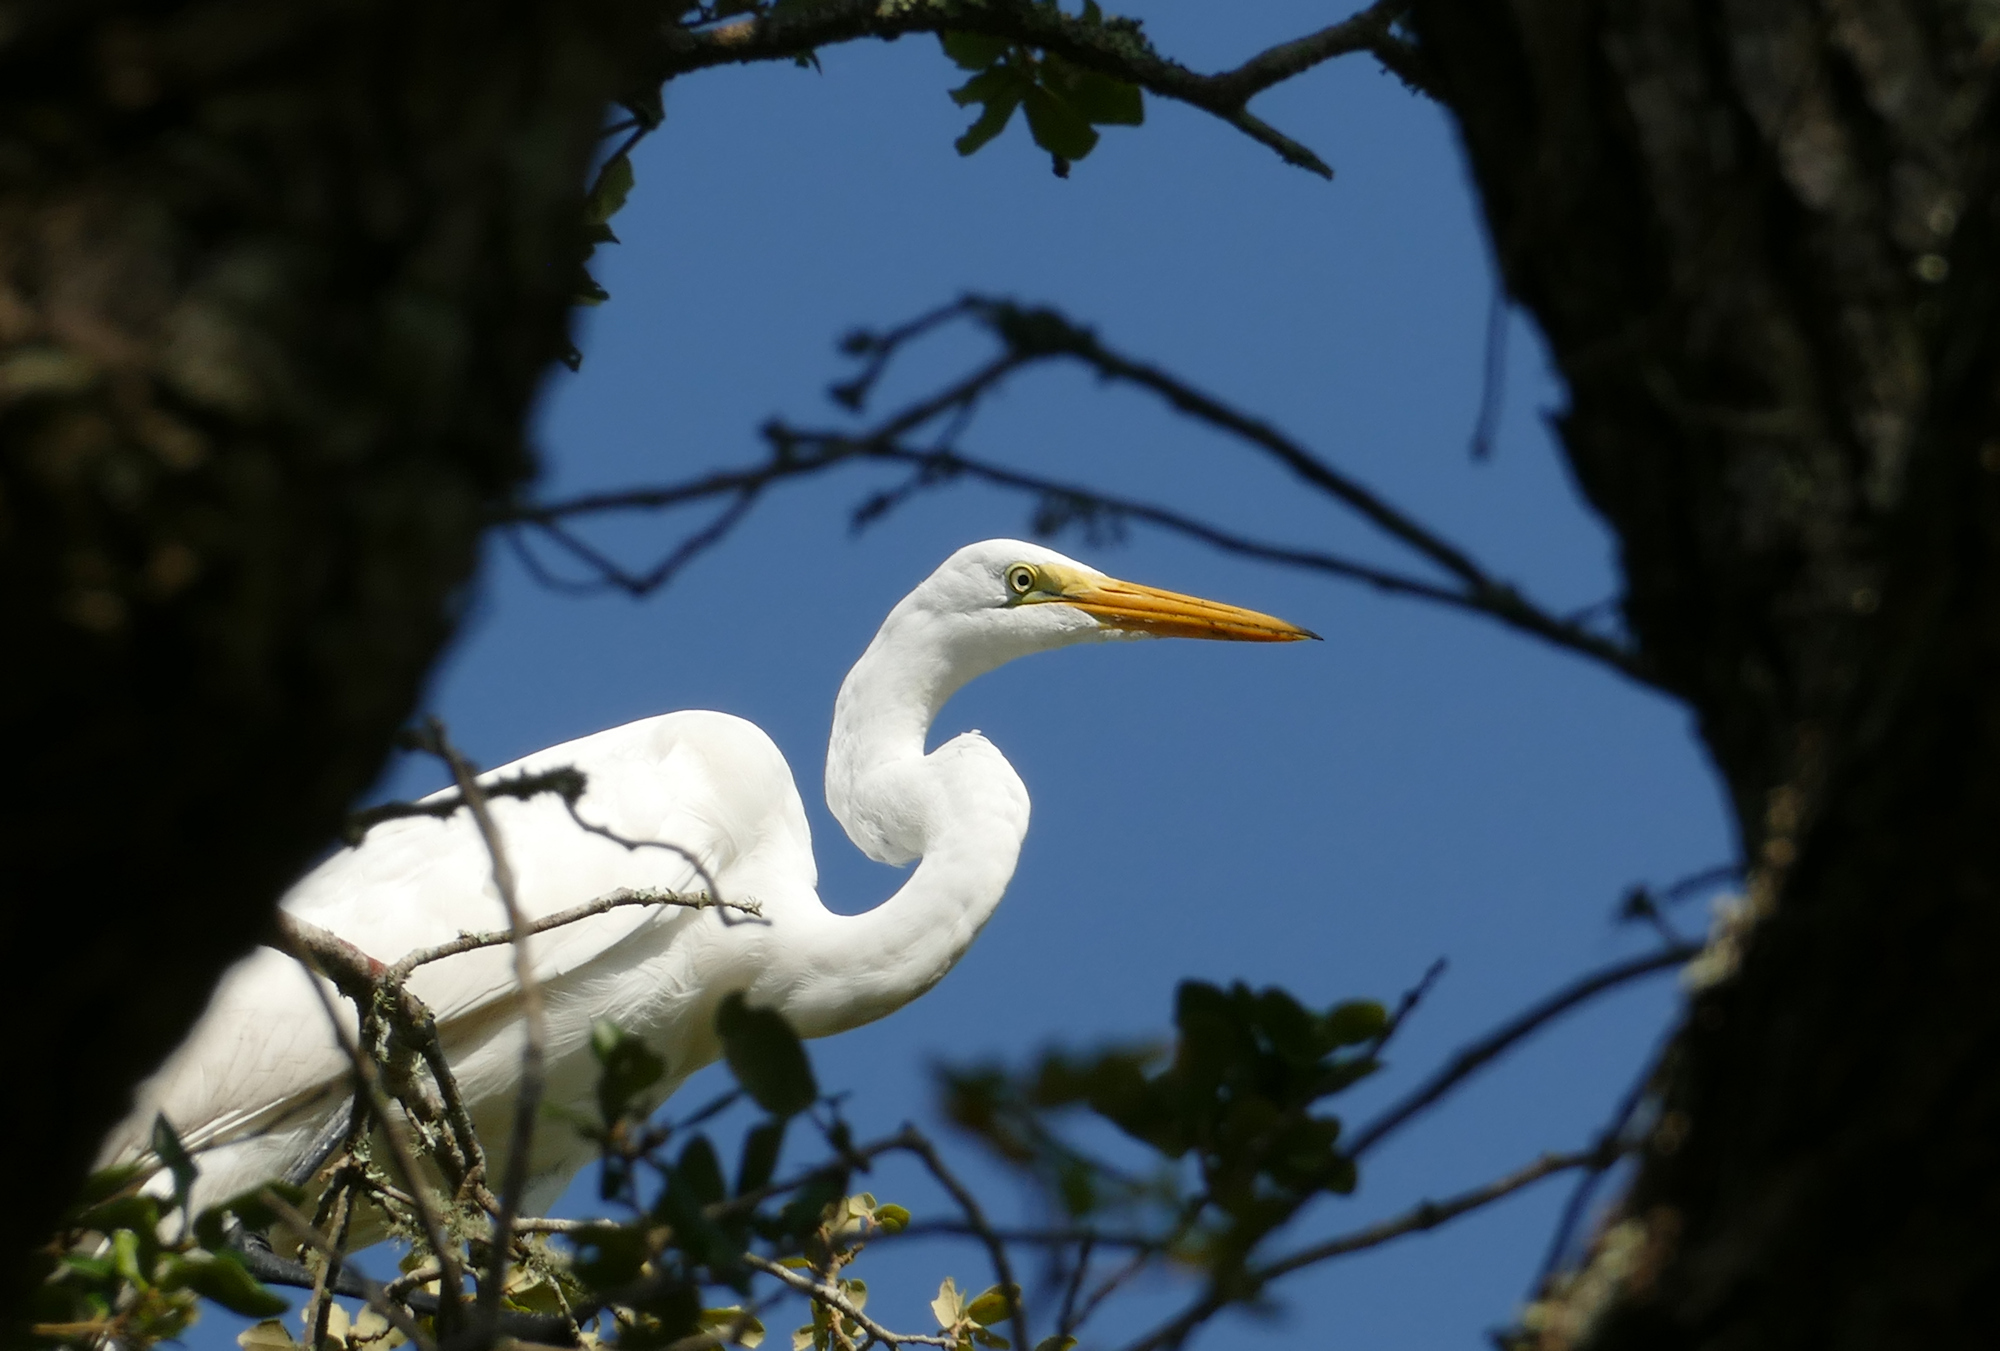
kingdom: Animalia
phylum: Chordata
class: Aves
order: Pelecaniformes
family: Ardeidae
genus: Ardea
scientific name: Ardea alba
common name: Great egret
